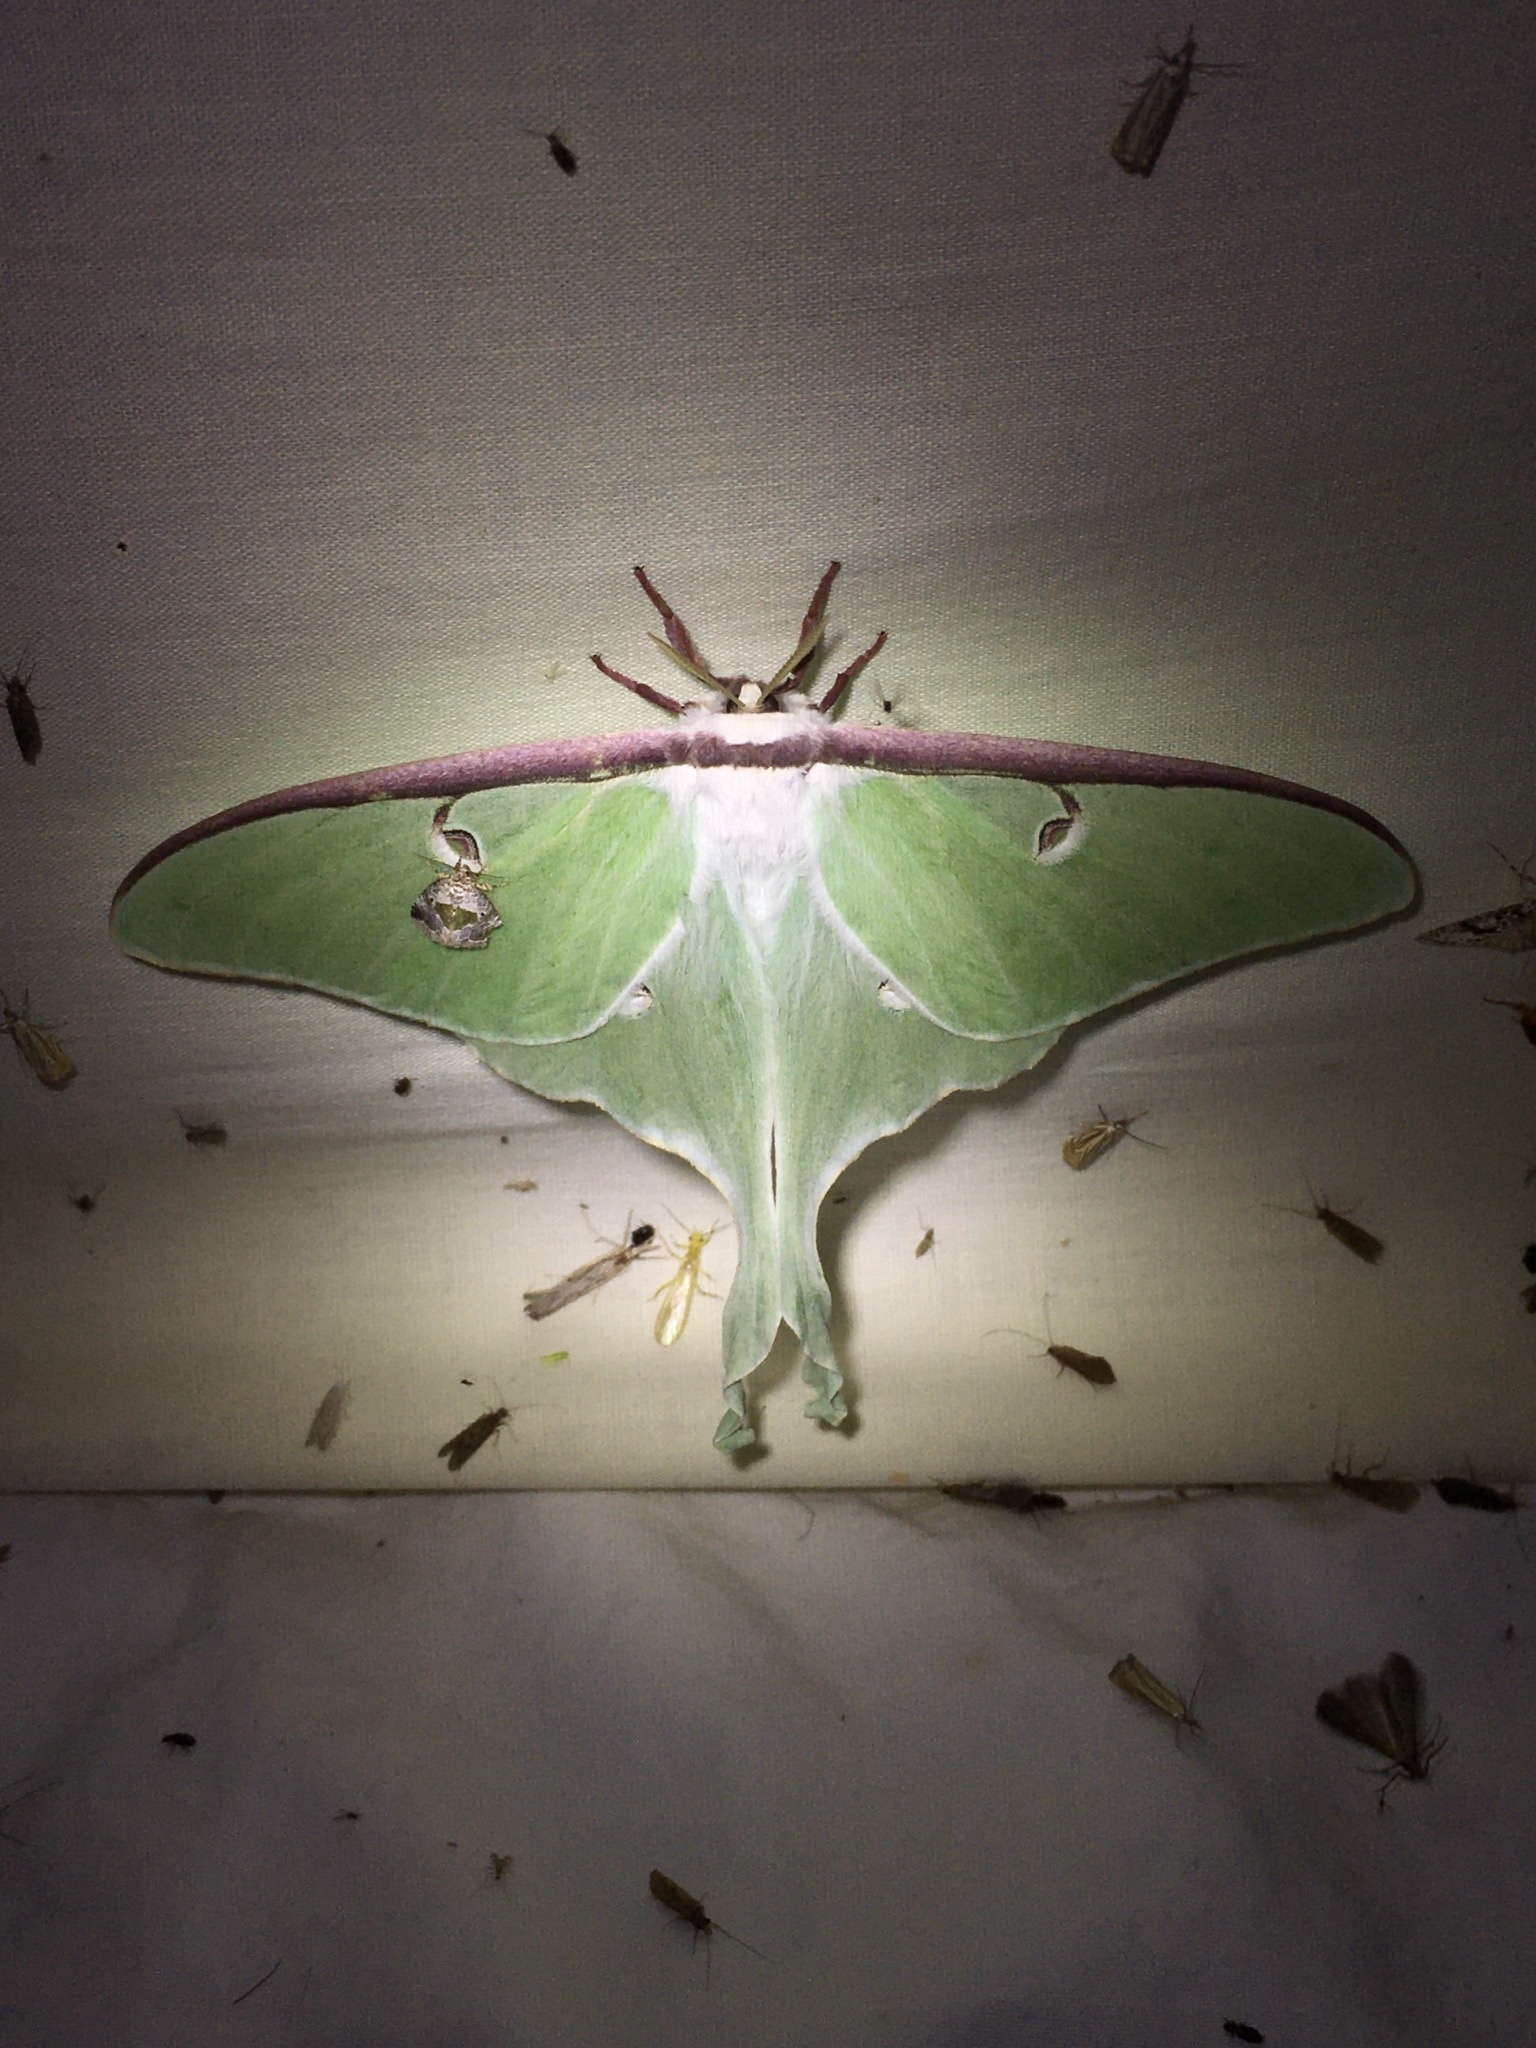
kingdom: Animalia
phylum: Arthropoda
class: Insecta
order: Lepidoptera
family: Saturniidae
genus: Actias
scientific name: Actias luna
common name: Luna moth
